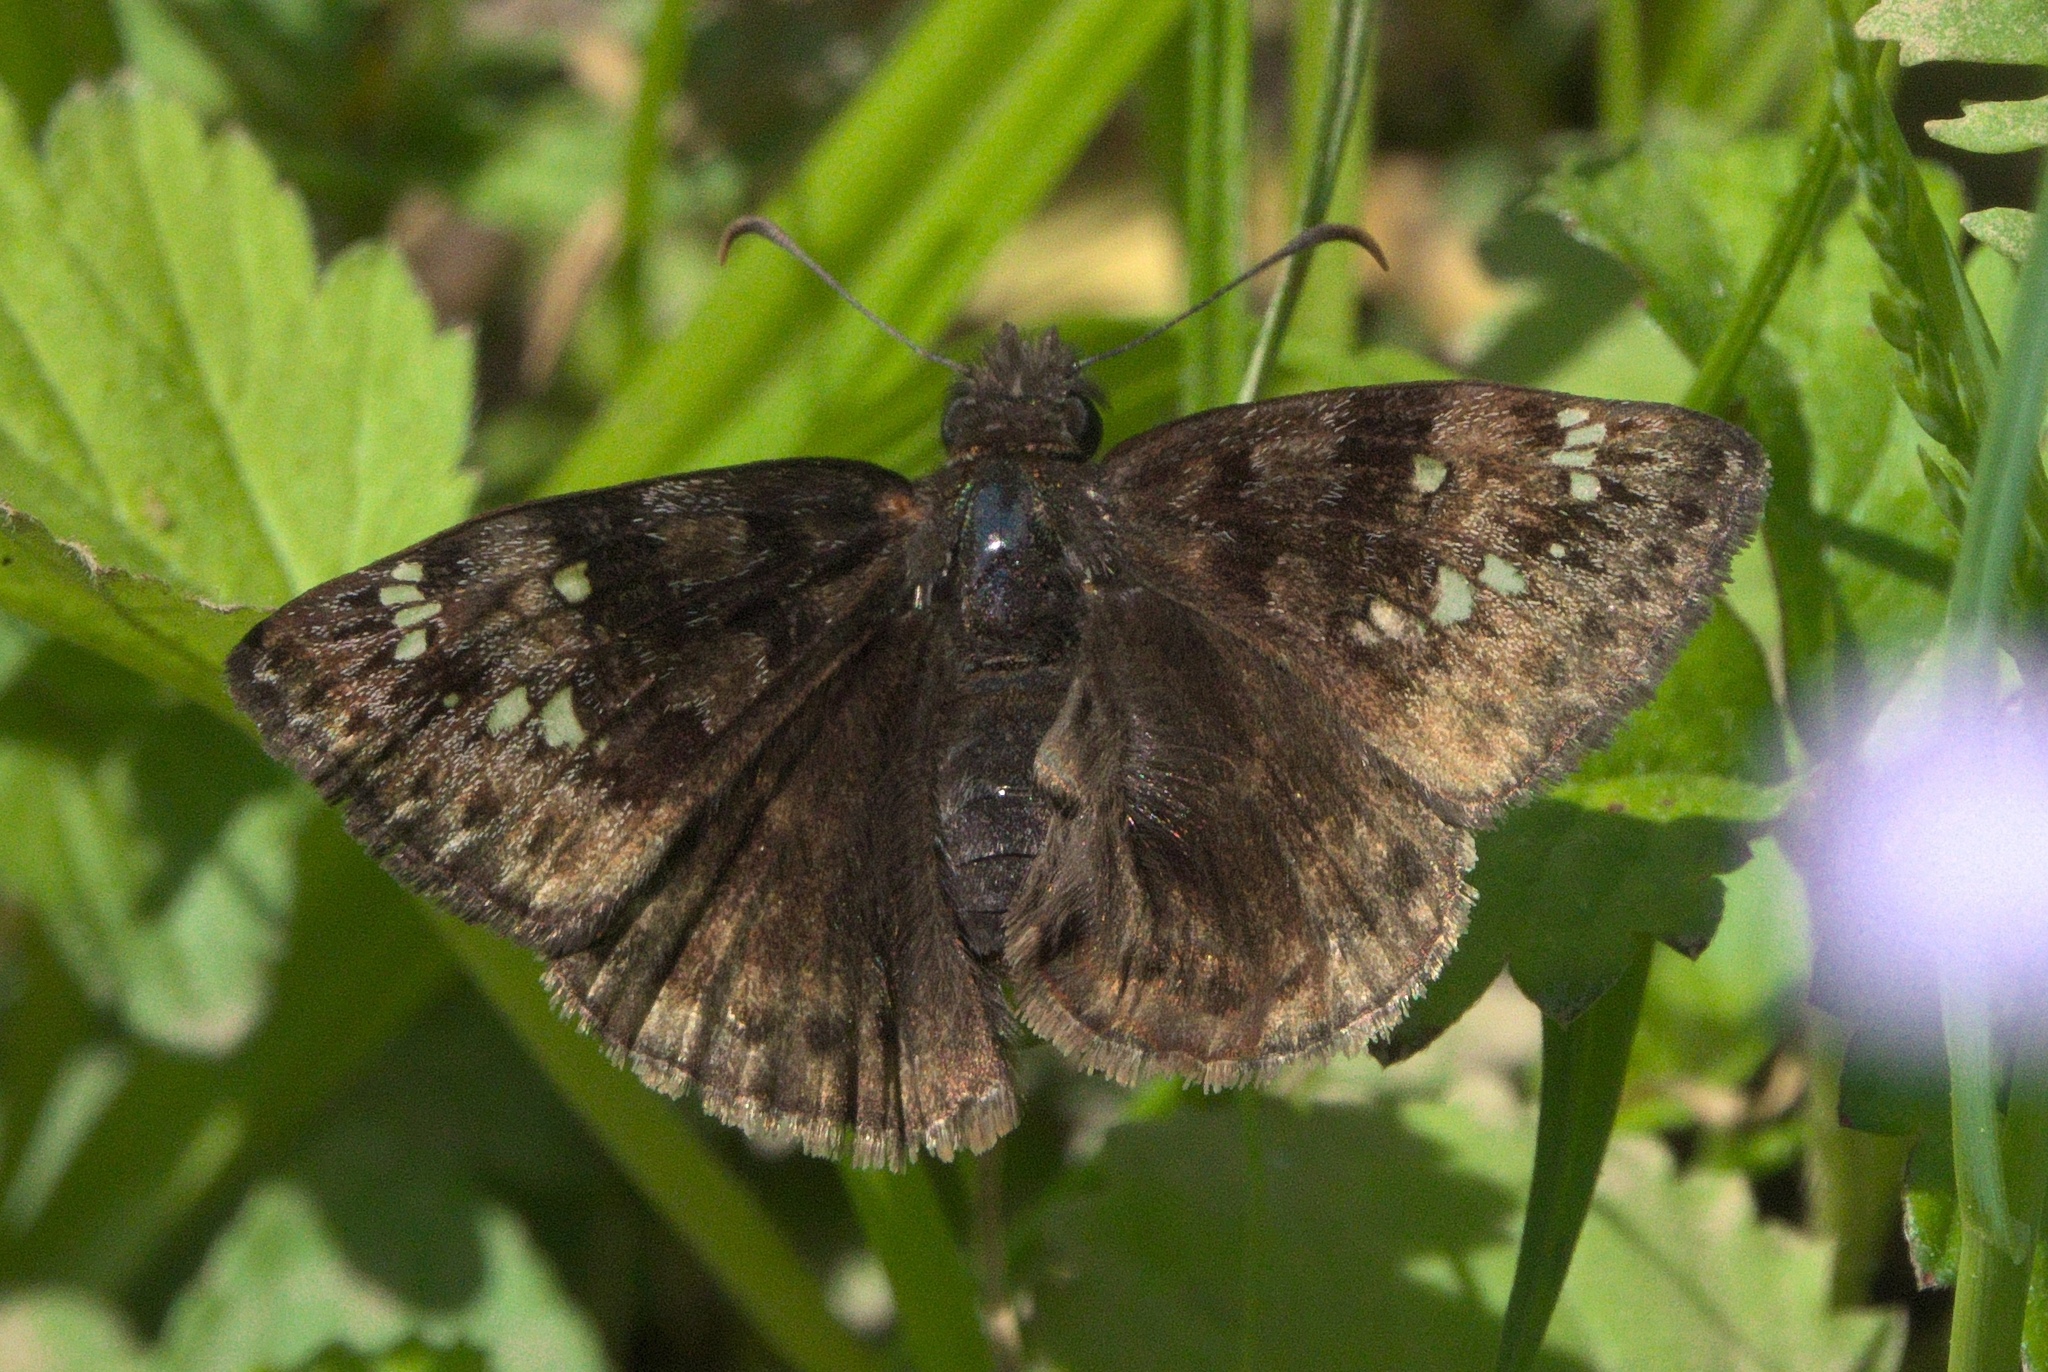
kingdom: Animalia
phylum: Arthropoda
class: Insecta
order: Lepidoptera
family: Hesperiidae
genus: Erynnis
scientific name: Erynnis juvenalis
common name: Juvenal's duskywing
